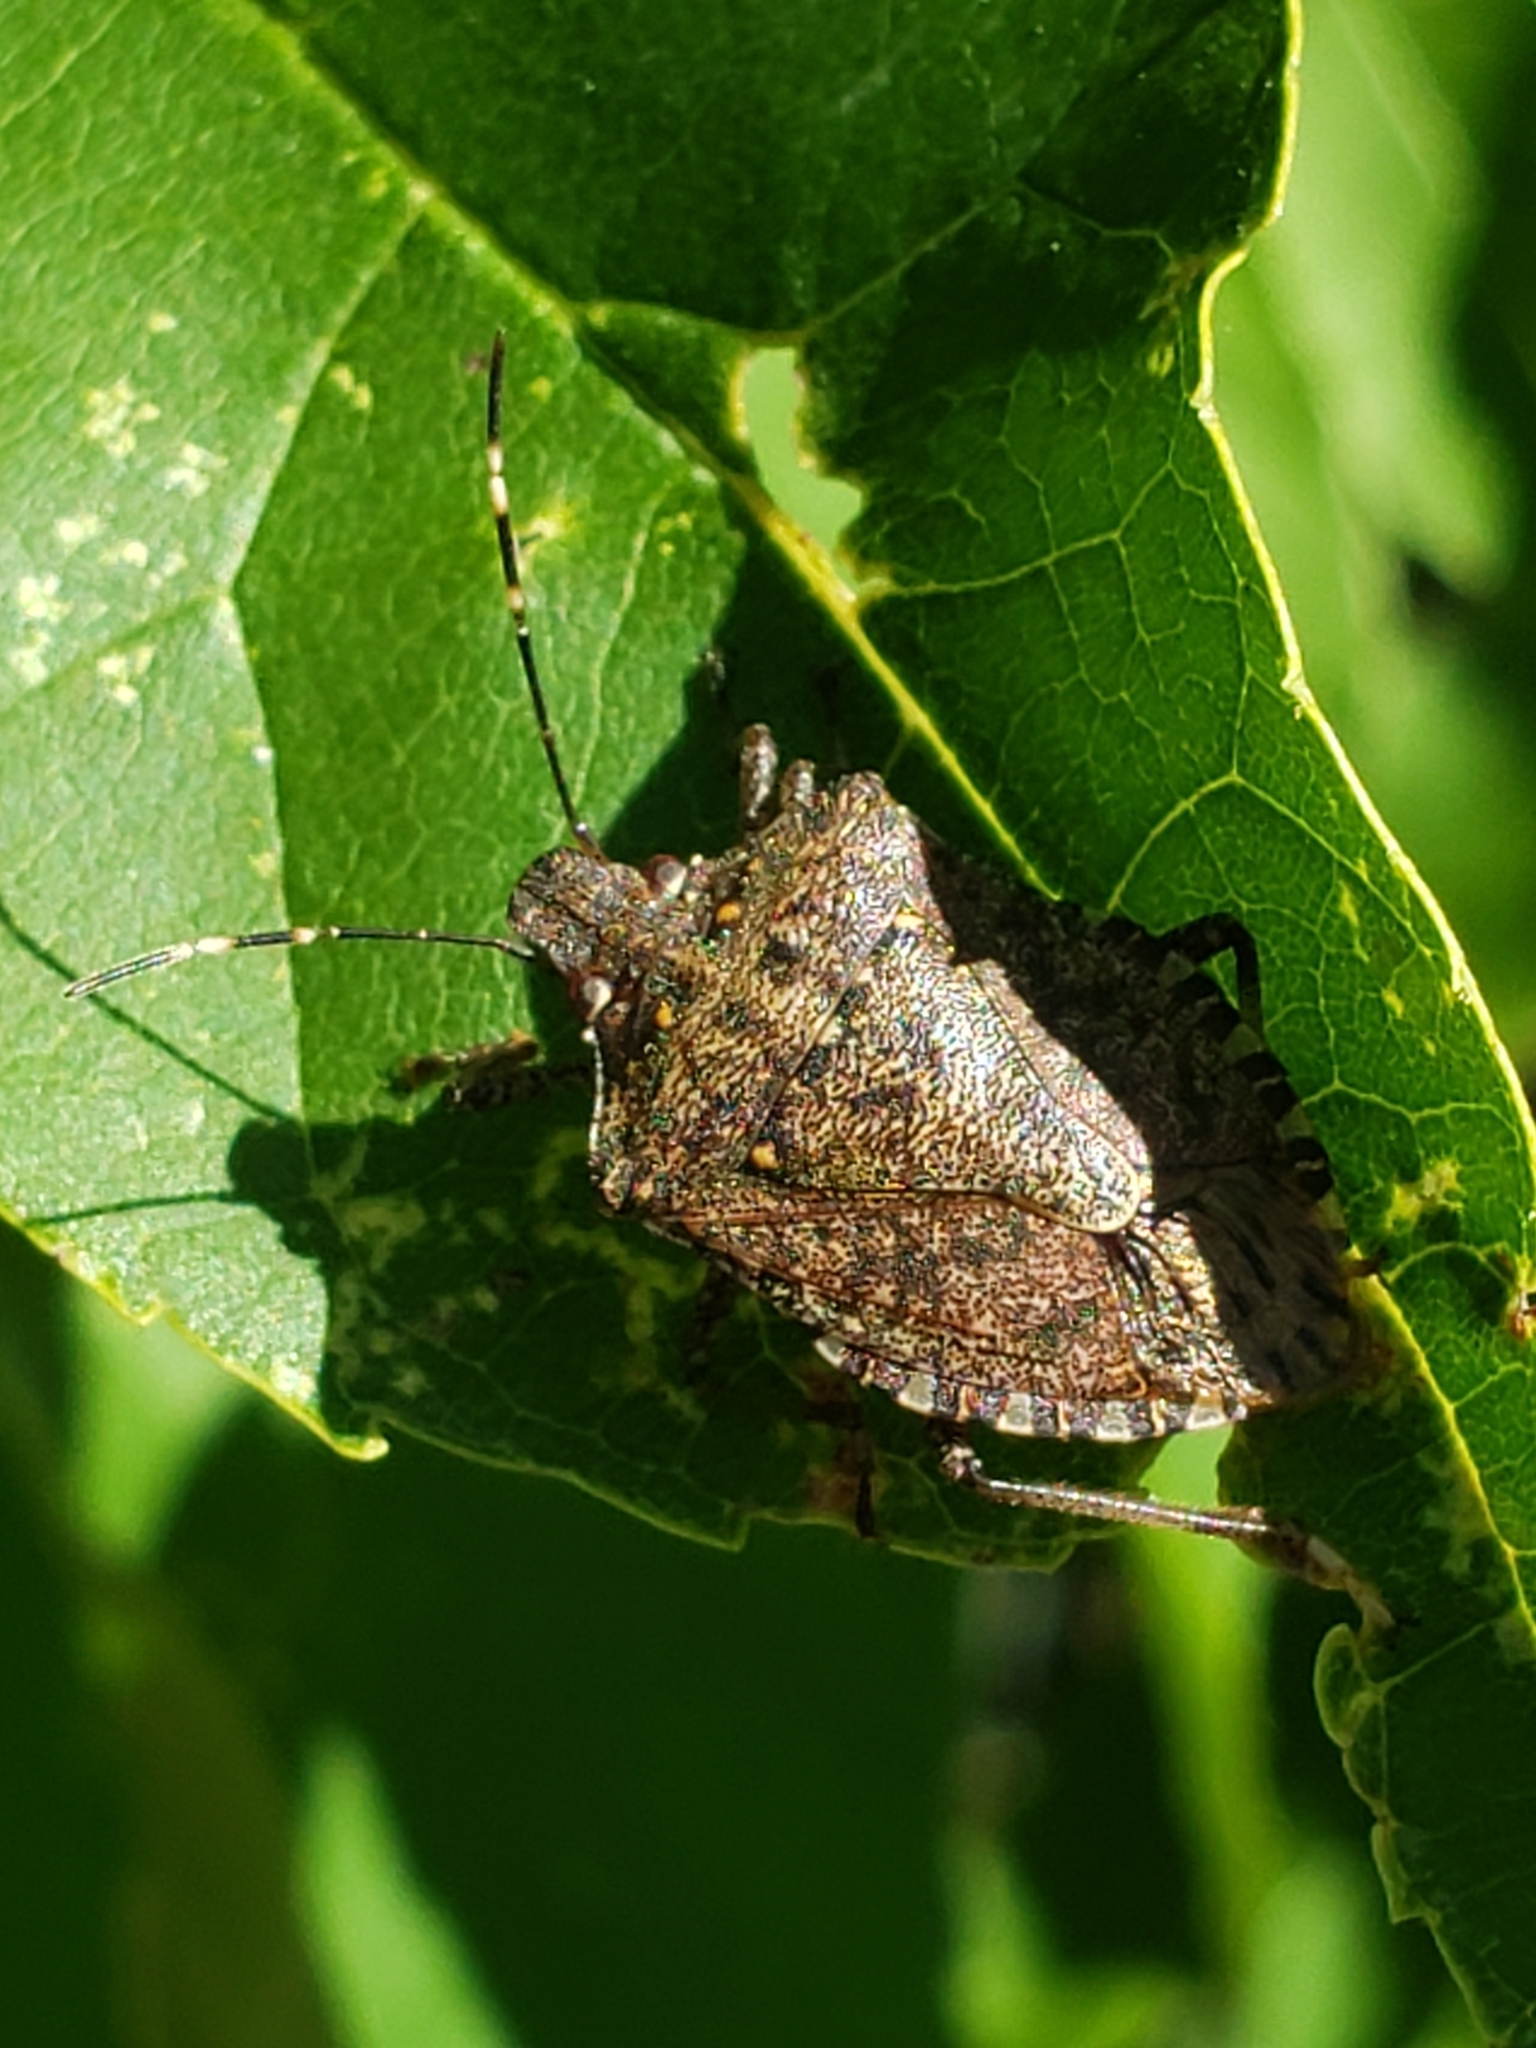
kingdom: Animalia
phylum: Arthropoda
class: Insecta
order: Hemiptera
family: Pentatomidae
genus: Halyomorpha
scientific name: Halyomorpha halys
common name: Brown marmorated stink bug
